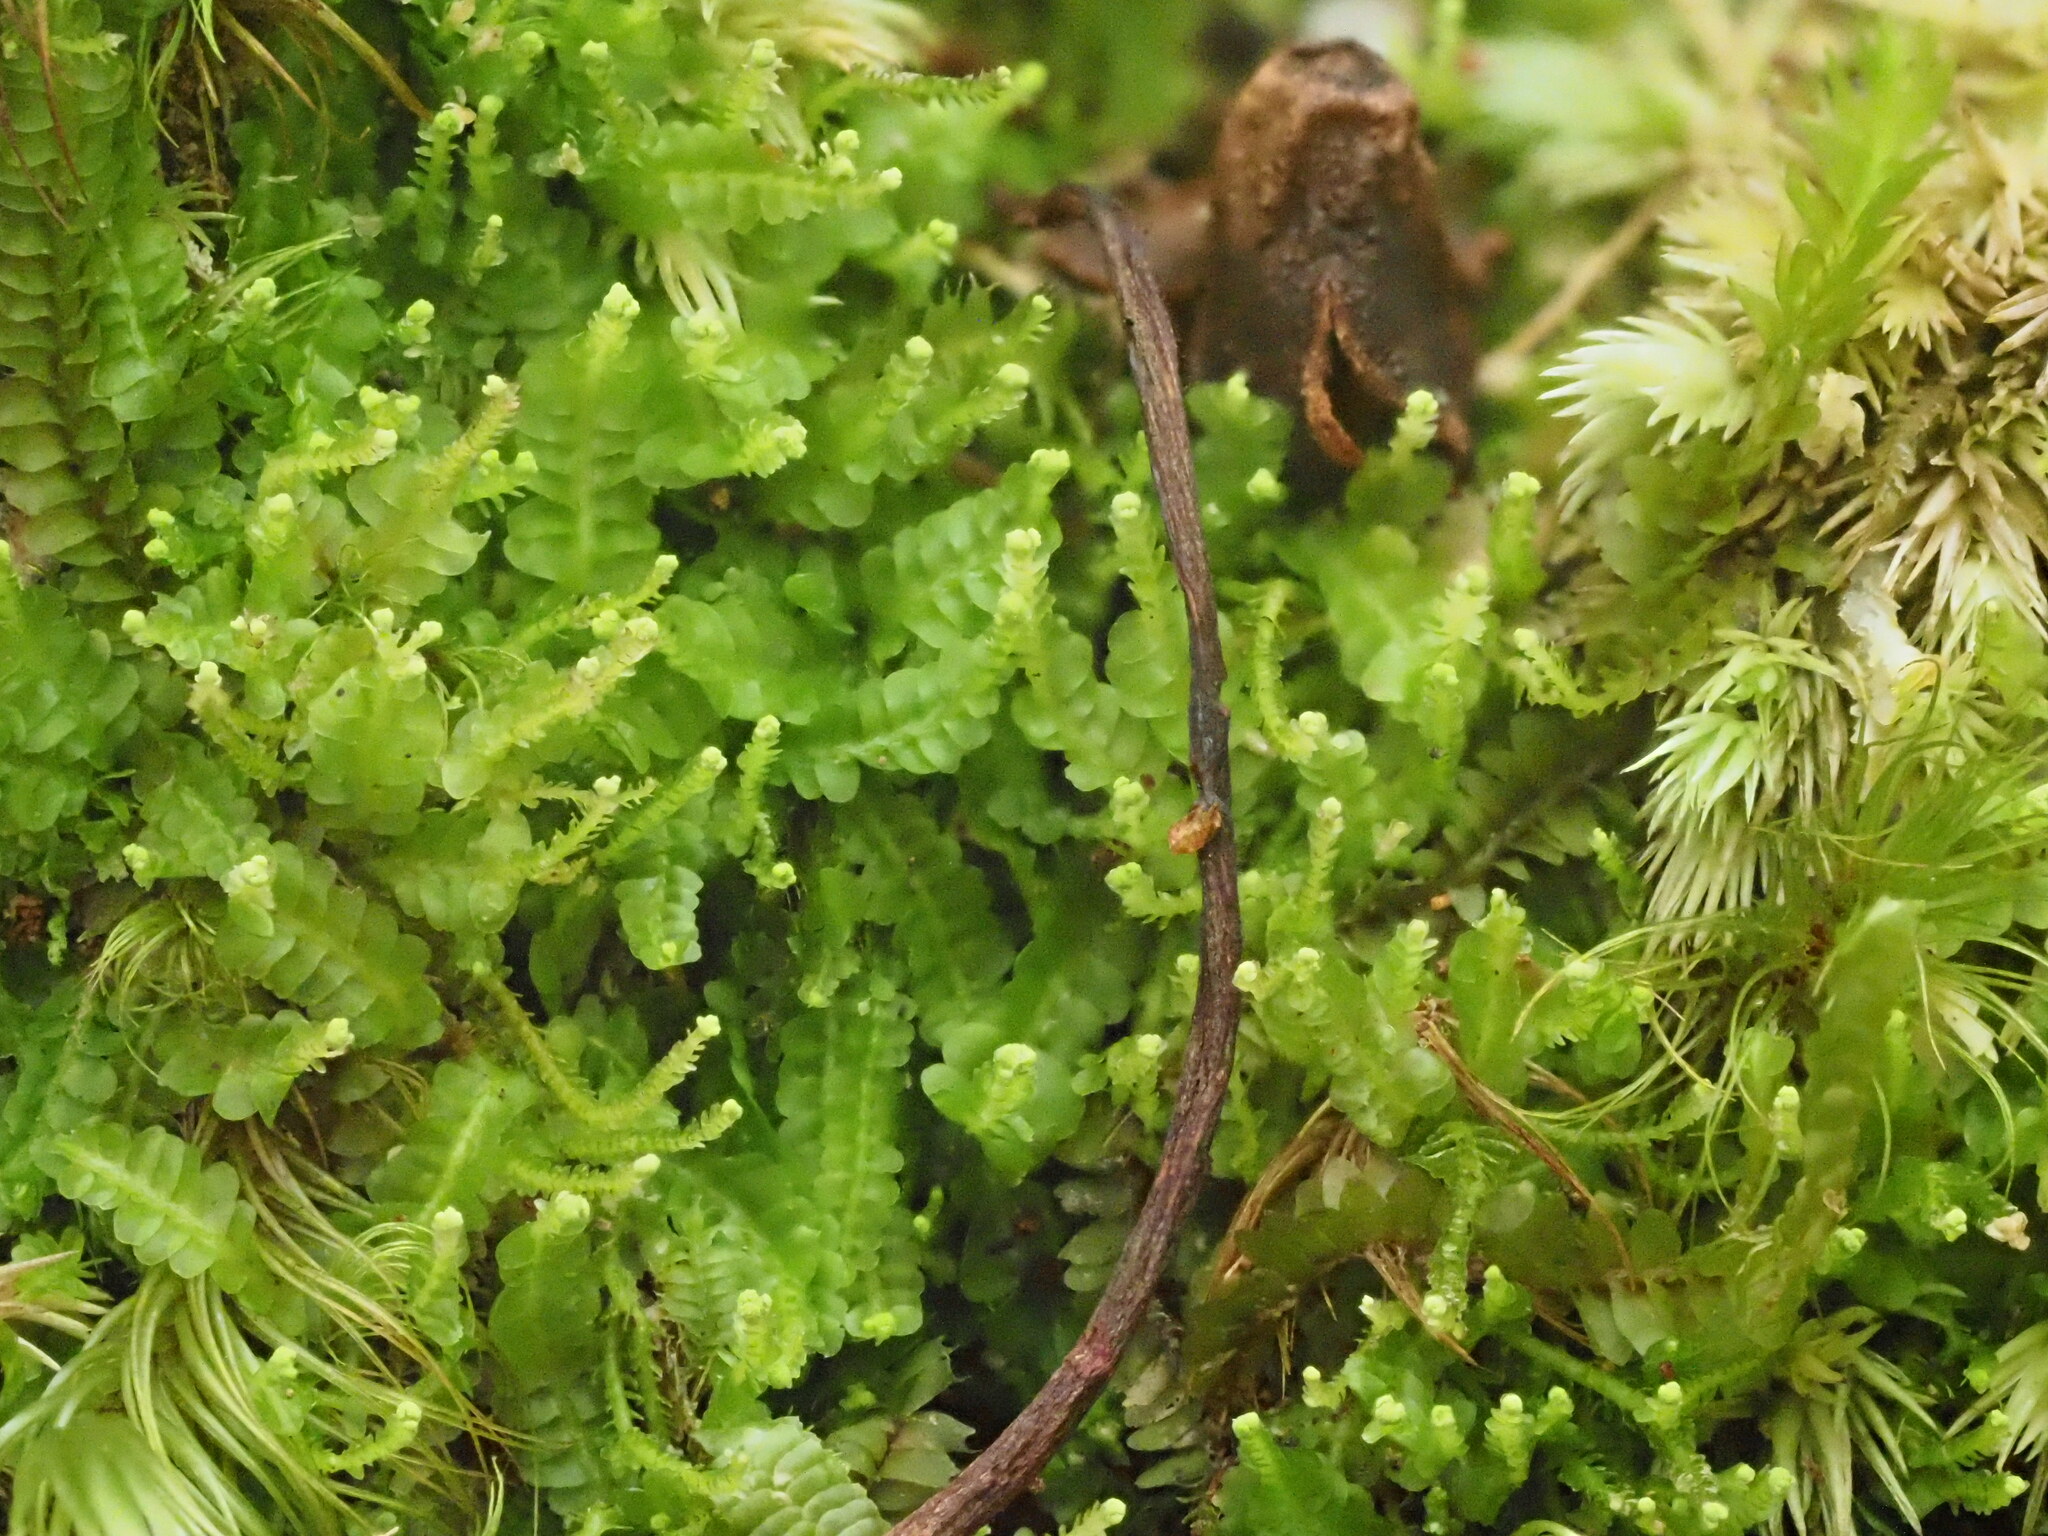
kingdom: Plantae
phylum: Marchantiophyta
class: Jungermanniopsida
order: Jungermanniales
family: Cephaloziaceae
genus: Odontoschisma
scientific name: Odontoschisma denudatum
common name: Matchstick flapwort
